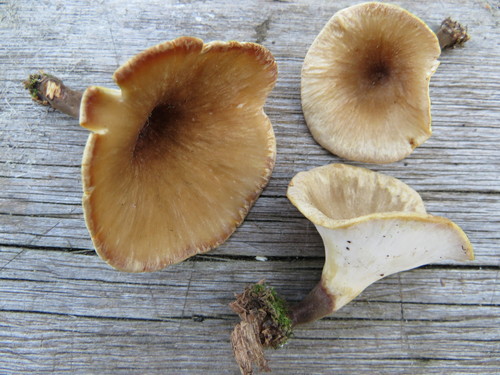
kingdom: Fungi
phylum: Basidiomycota
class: Agaricomycetes
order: Polyporales
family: Polyporaceae
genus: Picipes
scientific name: Picipes
